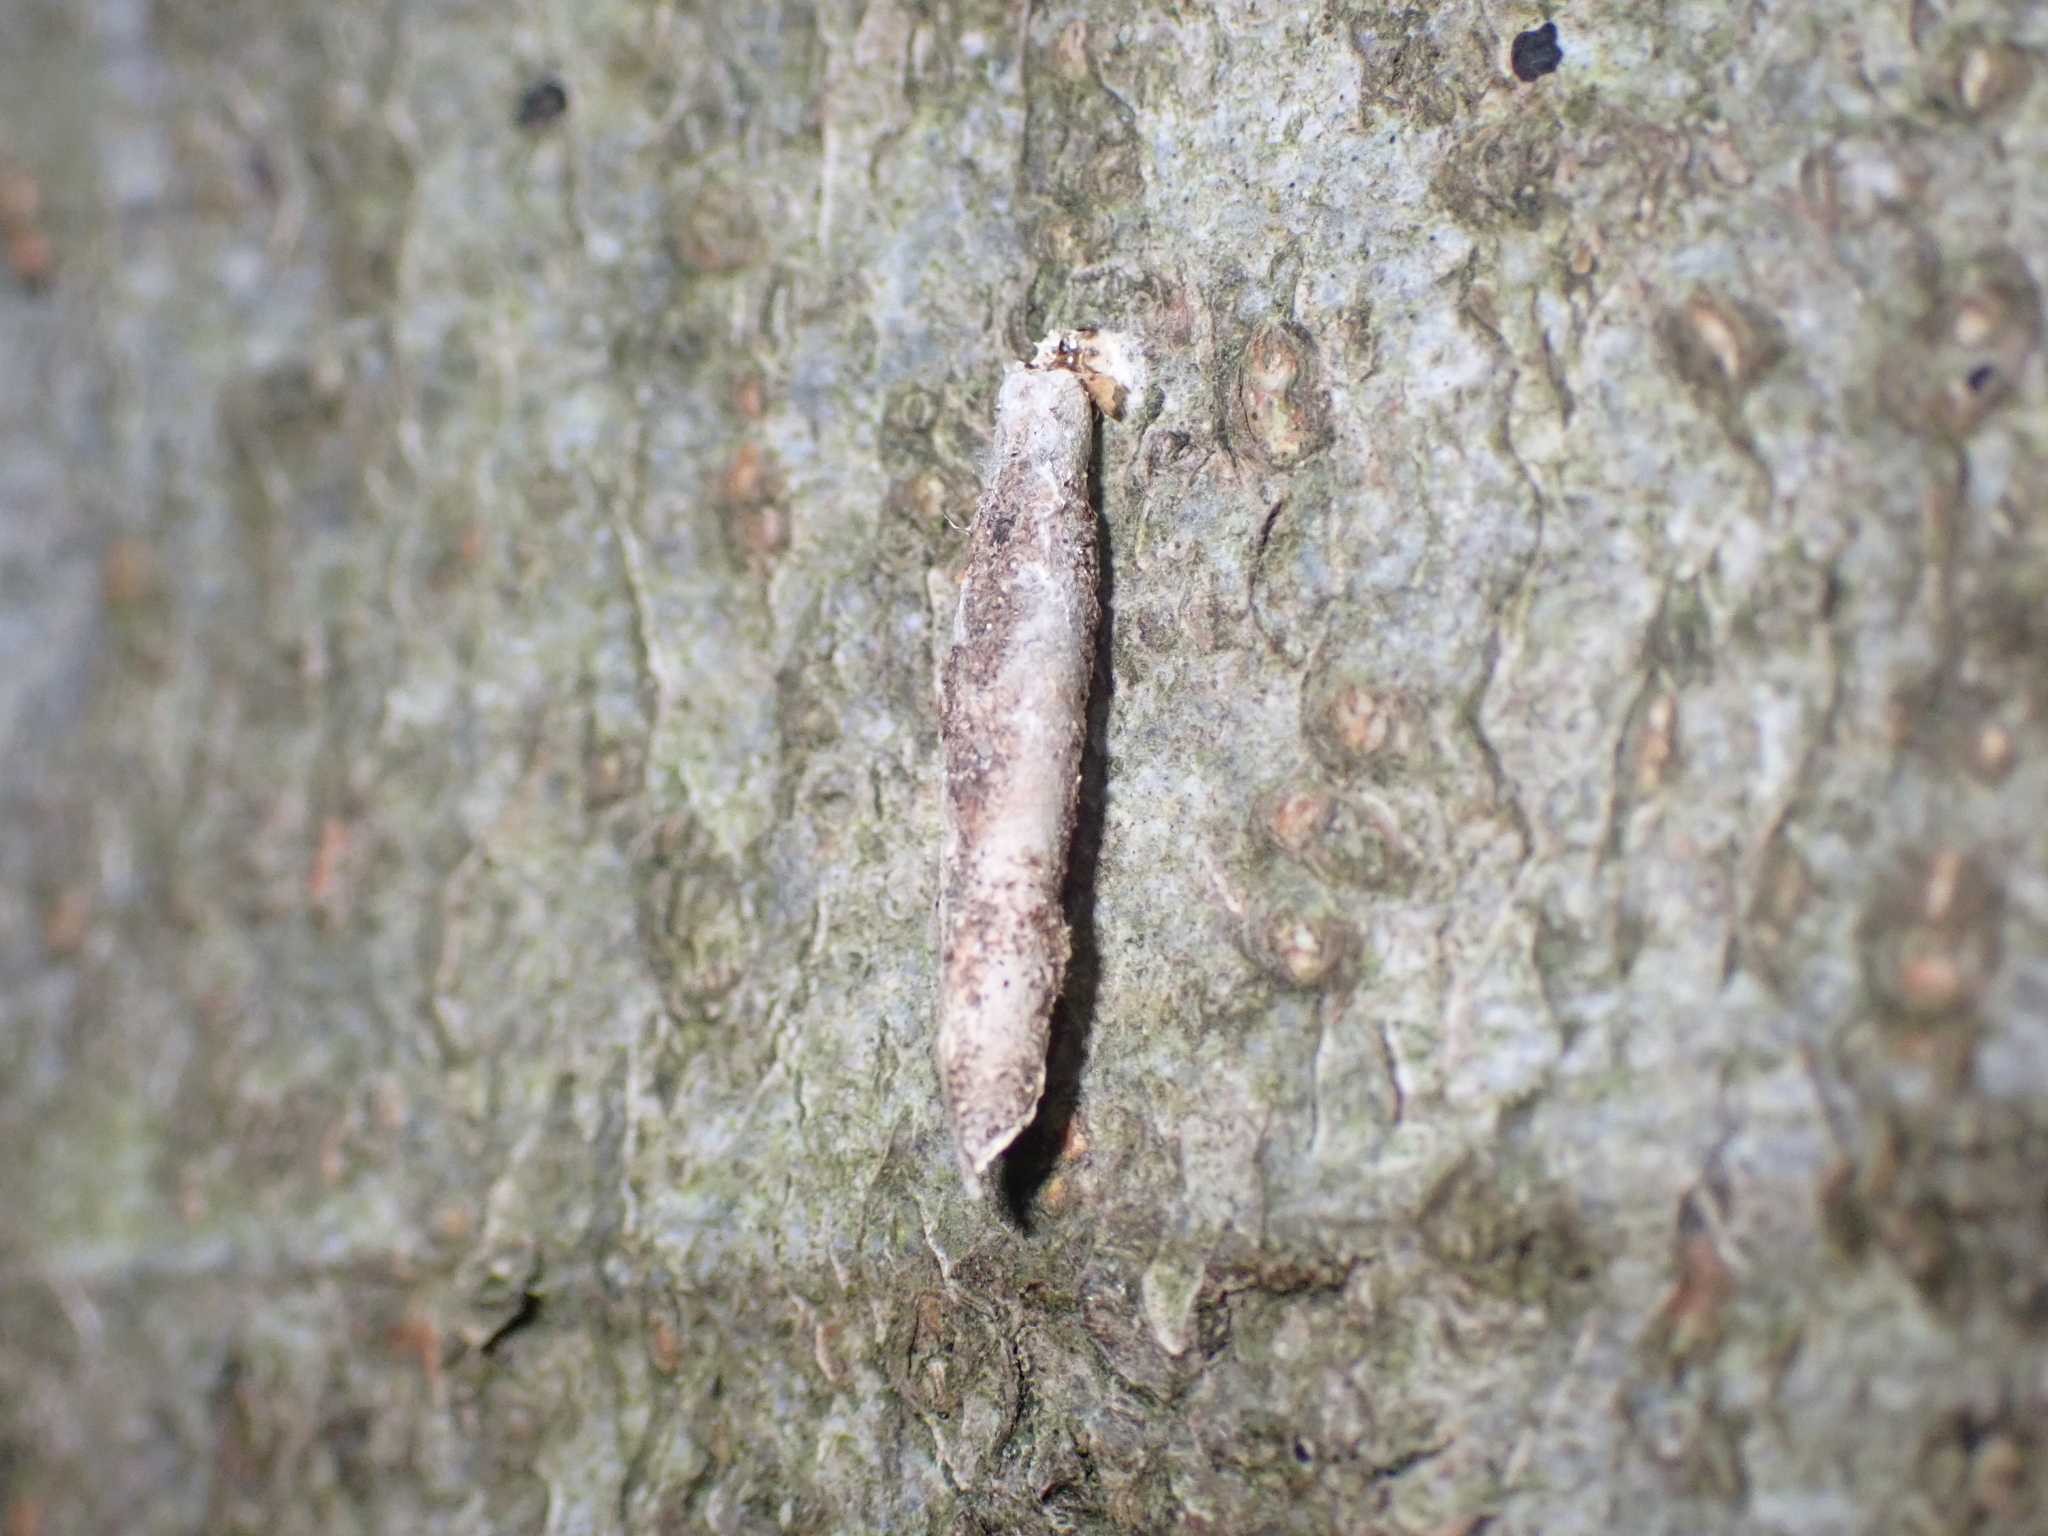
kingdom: Animalia
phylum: Arthropoda
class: Insecta
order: Lepidoptera
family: Psychidae
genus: Taleporia
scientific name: Taleporia tubulosa
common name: Brown smoke
